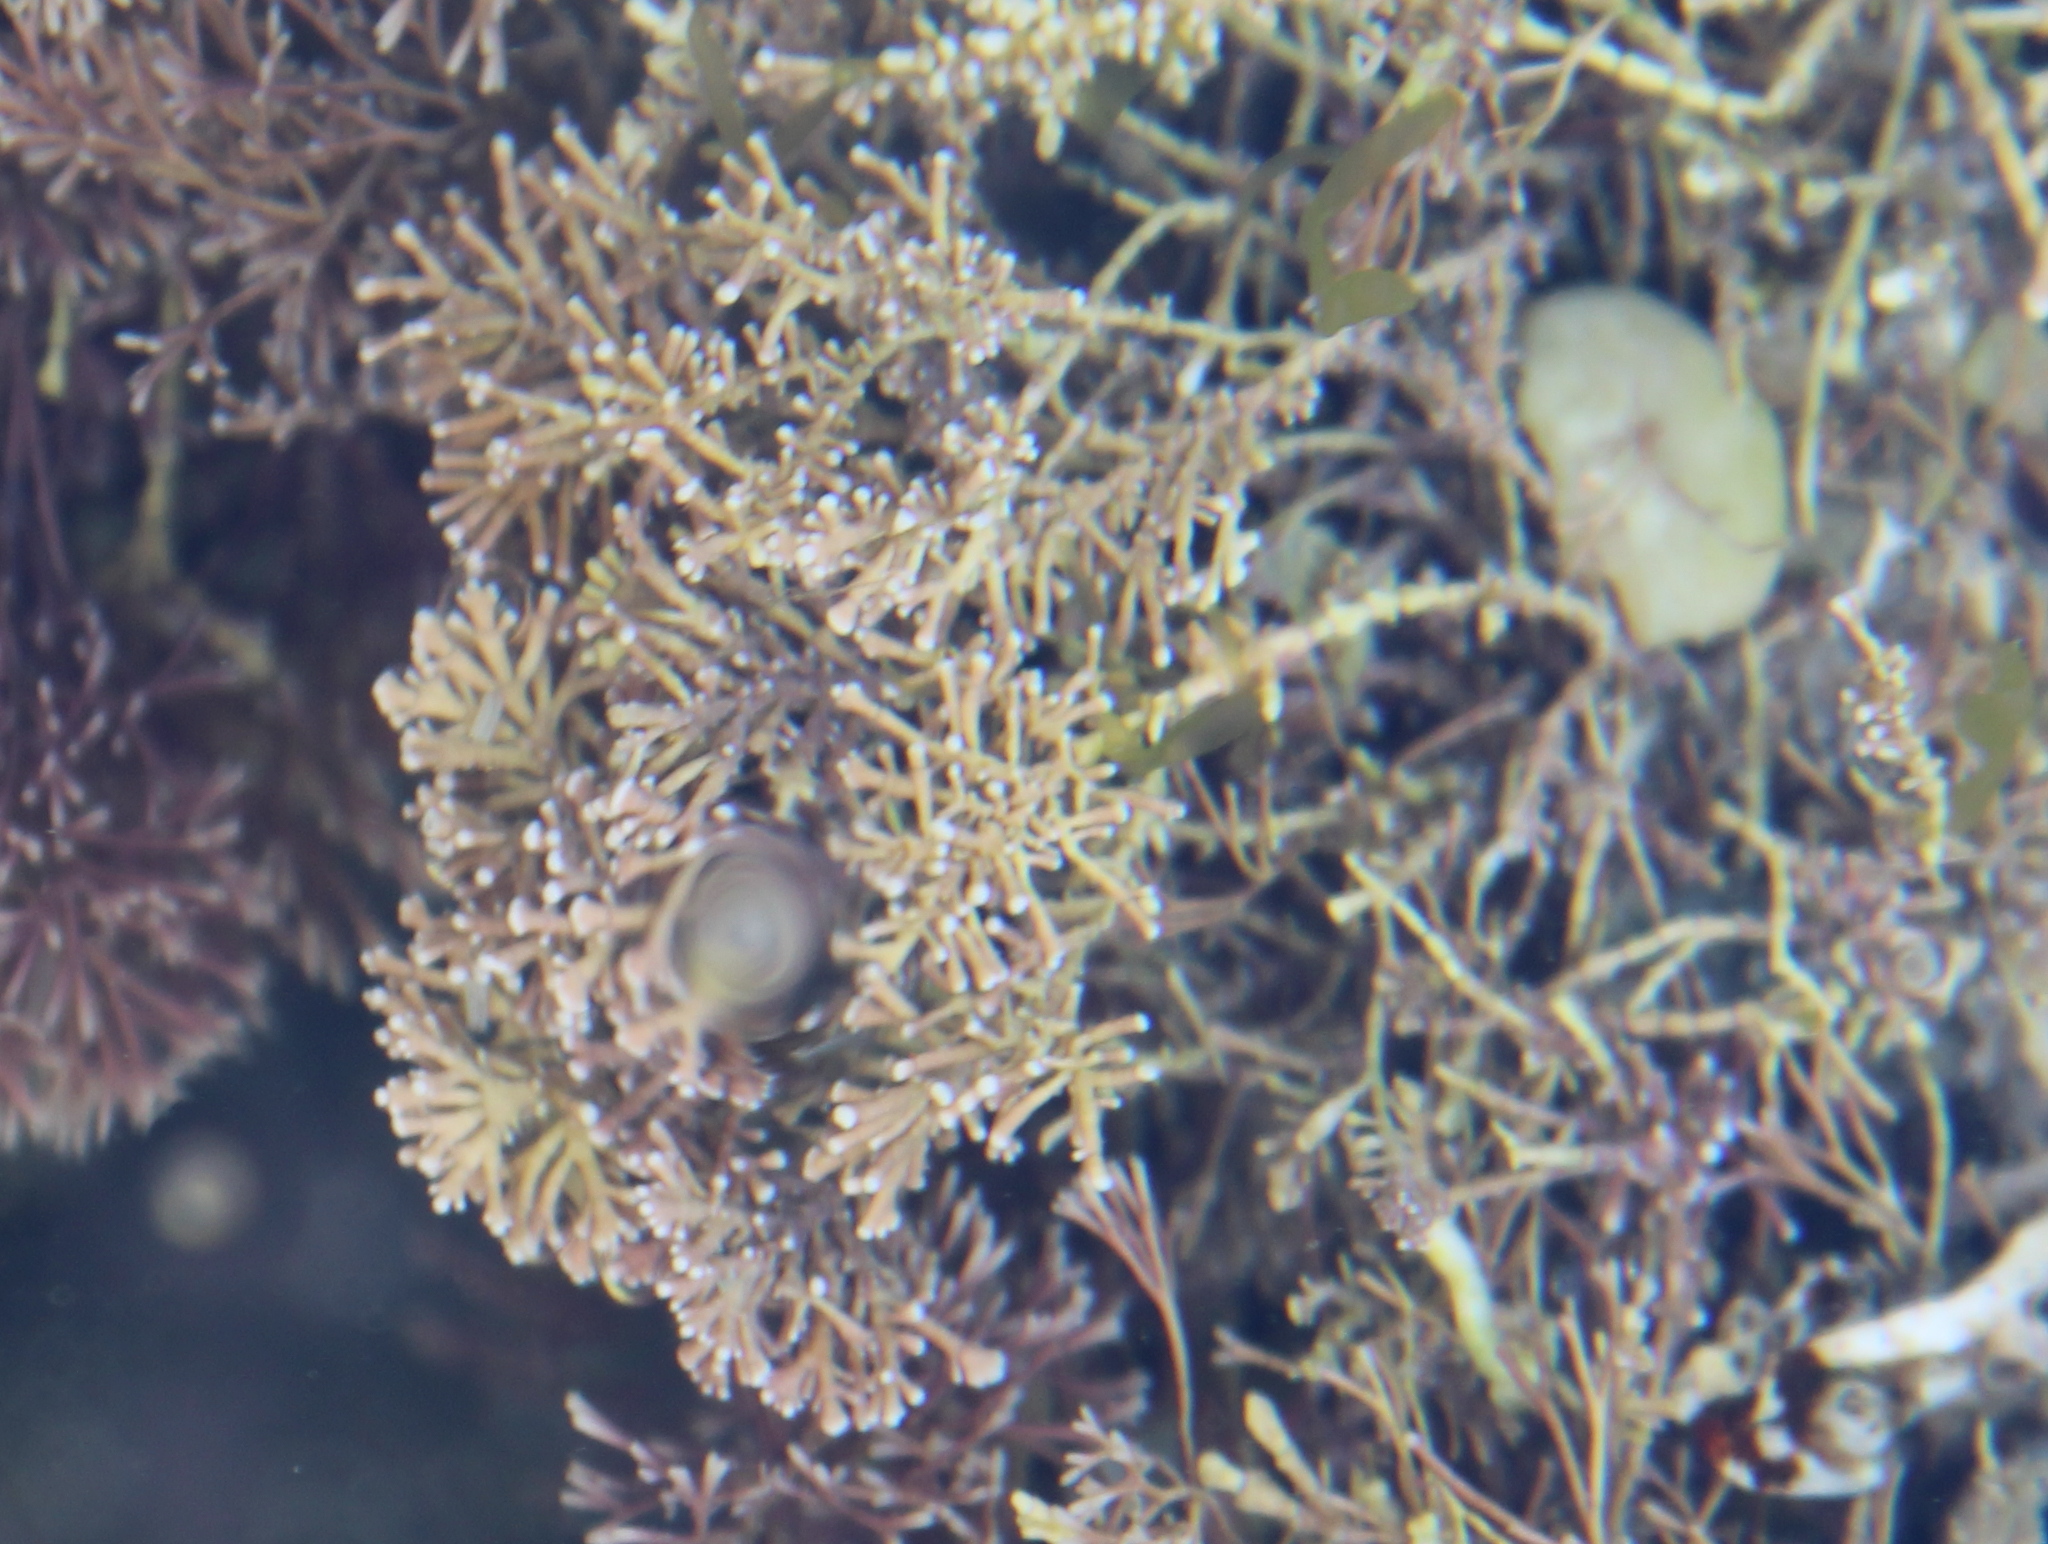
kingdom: Plantae
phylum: Rhodophyta
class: Florideophyceae
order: Corallinales
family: Corallinaceae
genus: Corallina
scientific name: Corallina officinalis
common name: Coral weed
